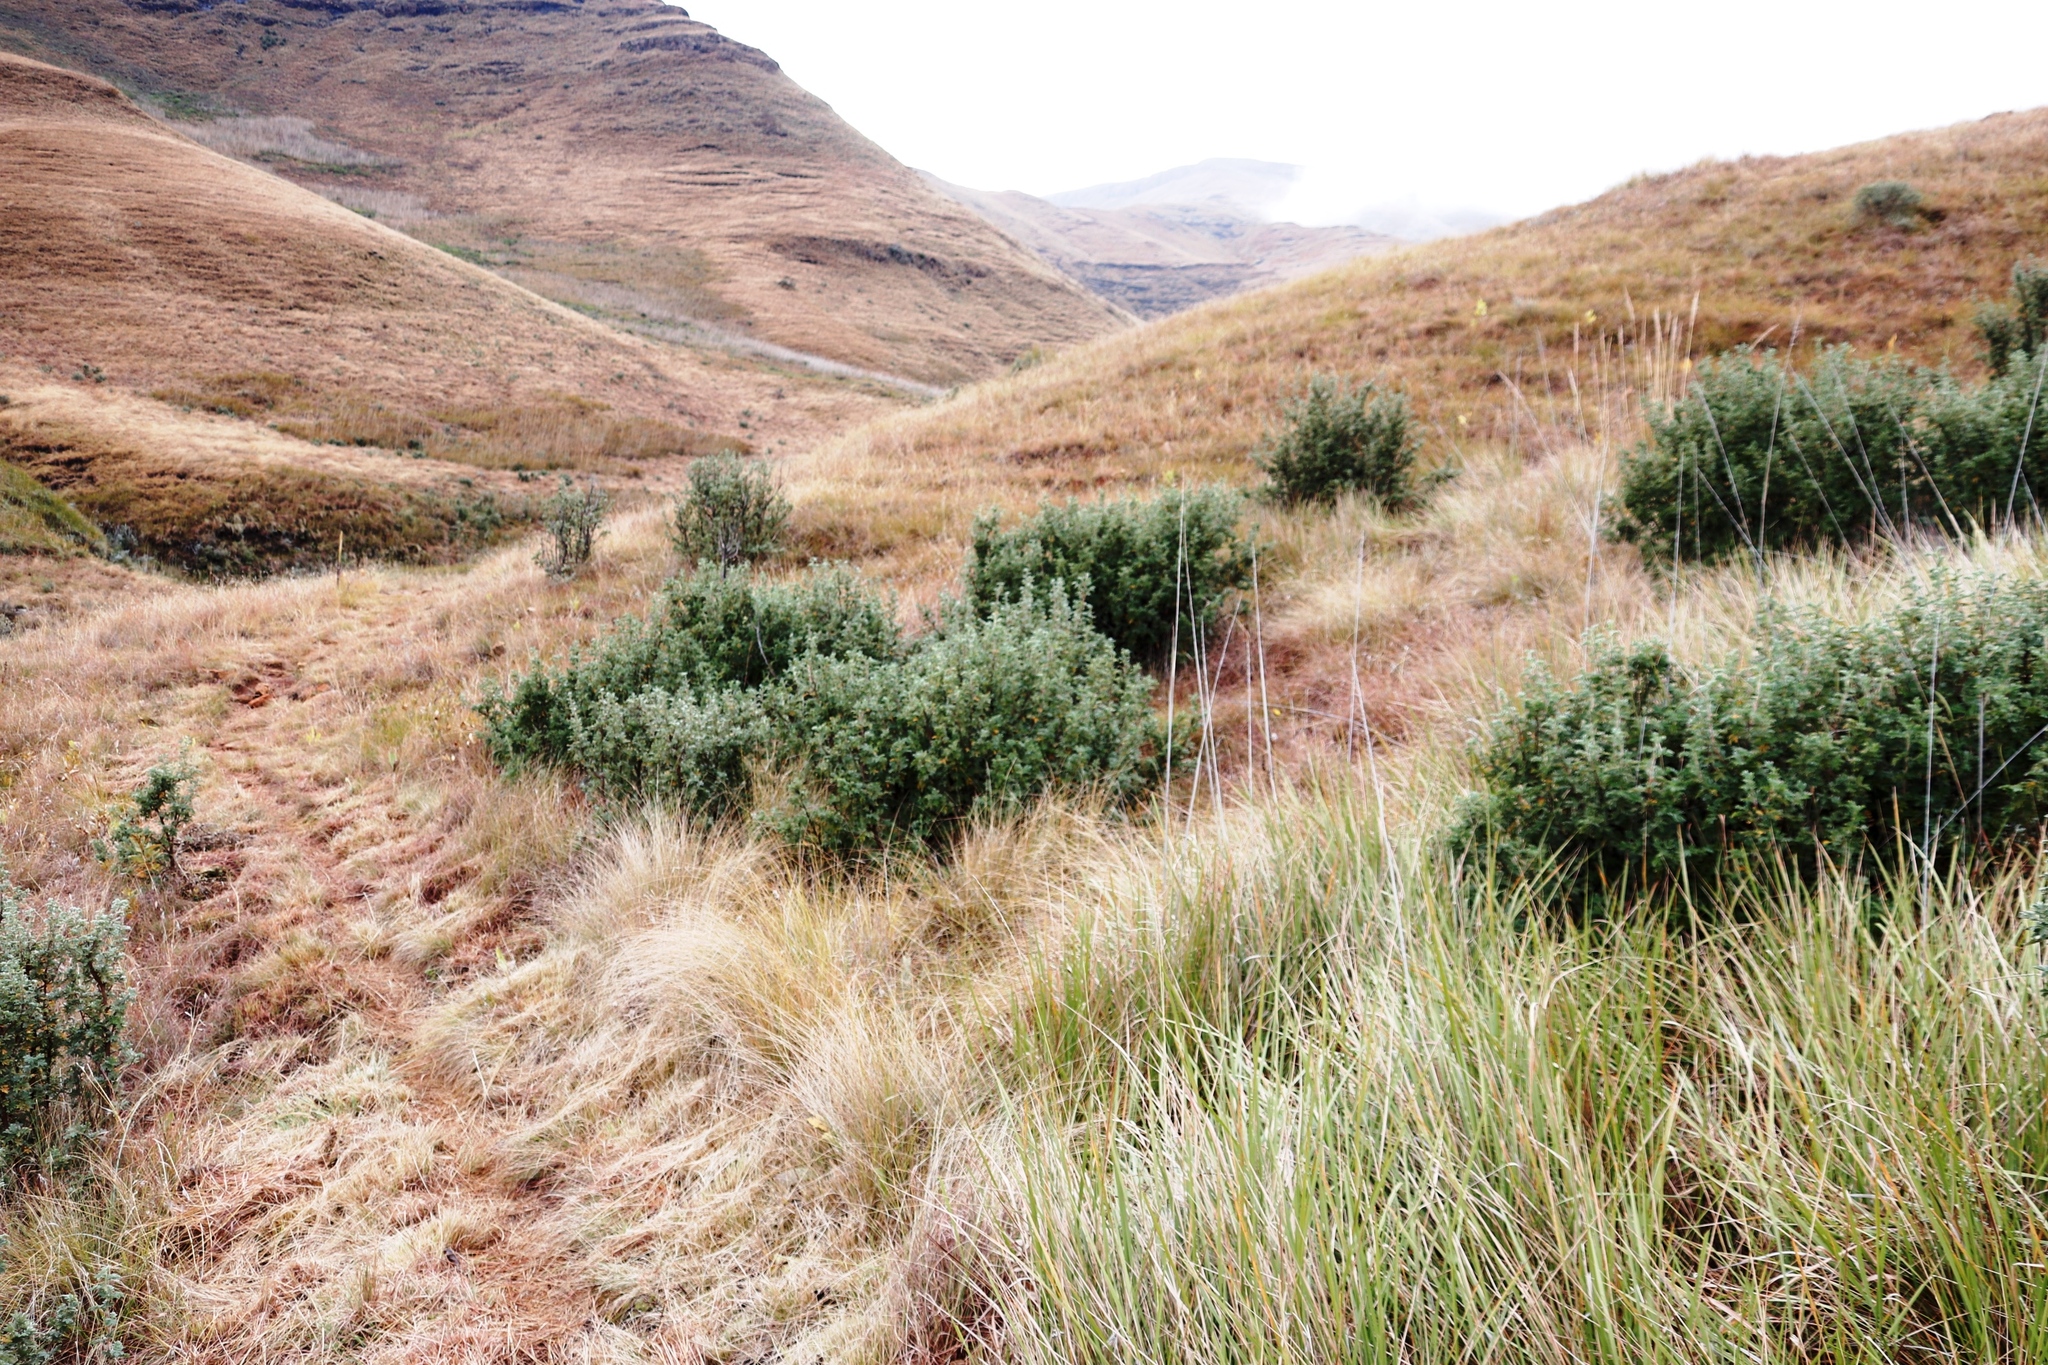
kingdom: Plantae
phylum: Tracheophyta
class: Magnoliopsida
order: Rosales
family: Rosaceae
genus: Leucosidea
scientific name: Leucosidea sericea
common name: Oldwood
